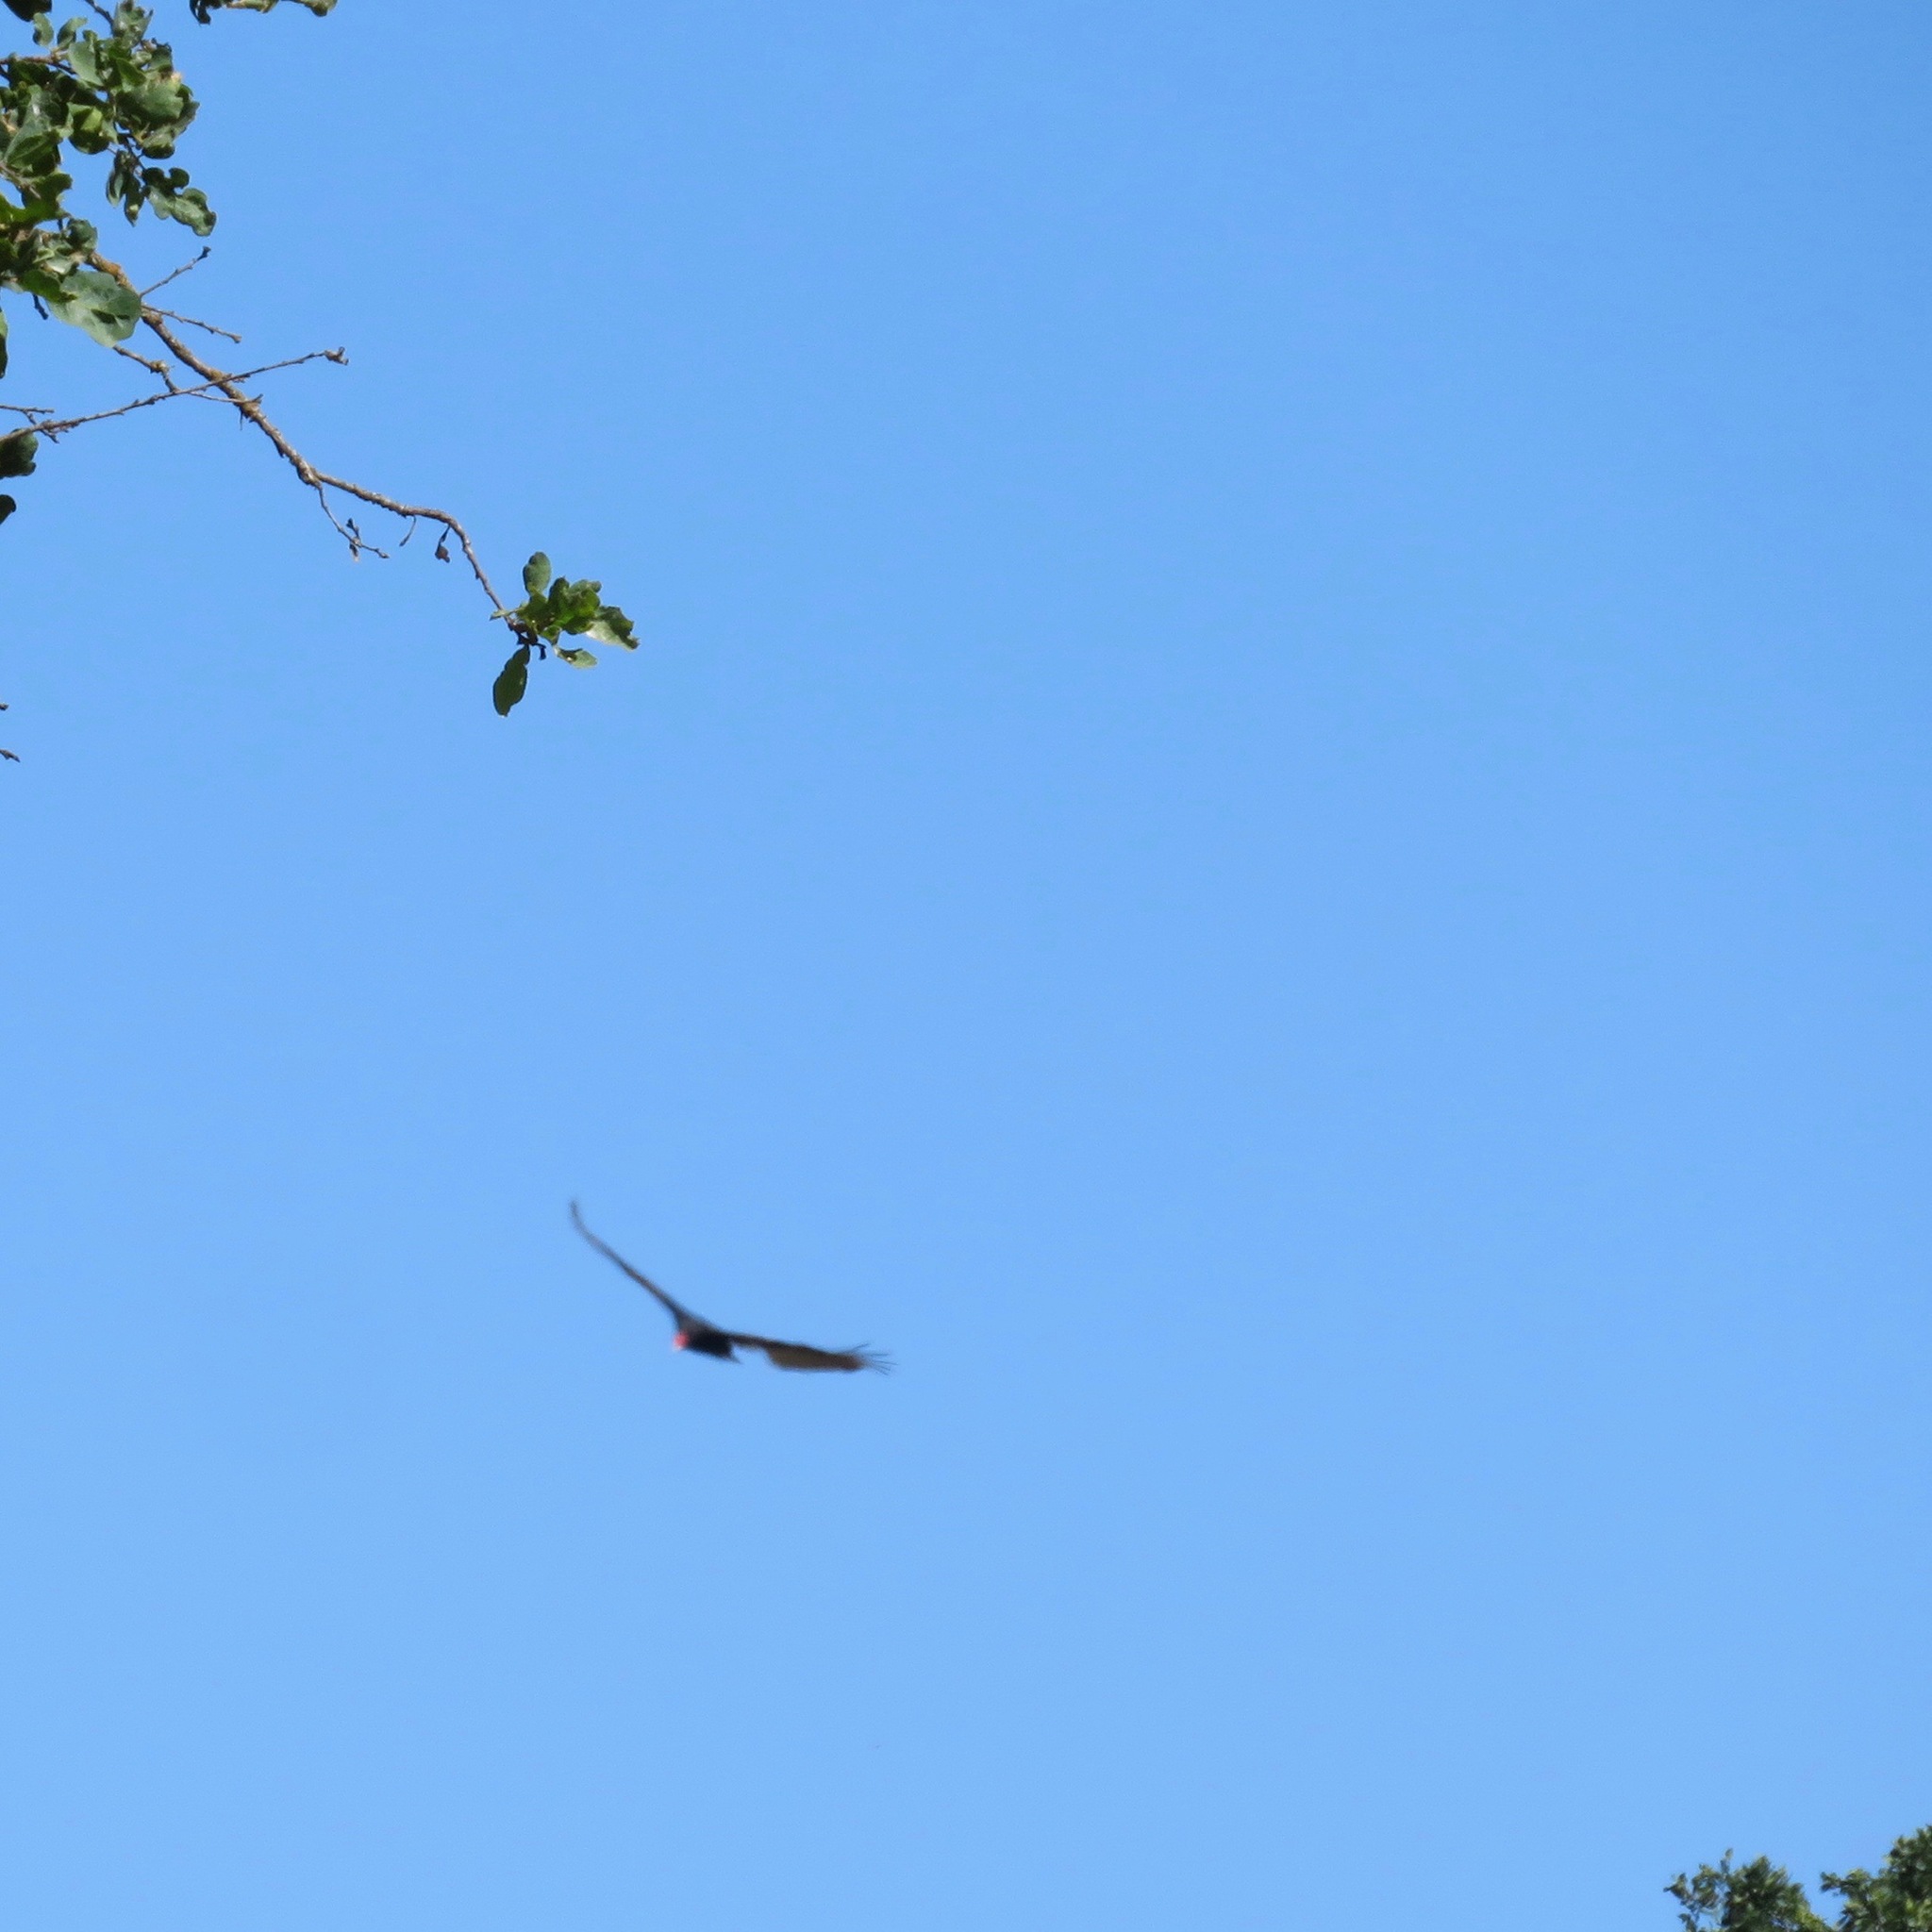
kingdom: Animalia
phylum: Chordata
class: Aves
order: Accipitriformes
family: Cathartidae
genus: Cathartes
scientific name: Cathartes aura
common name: Turkey vulture
